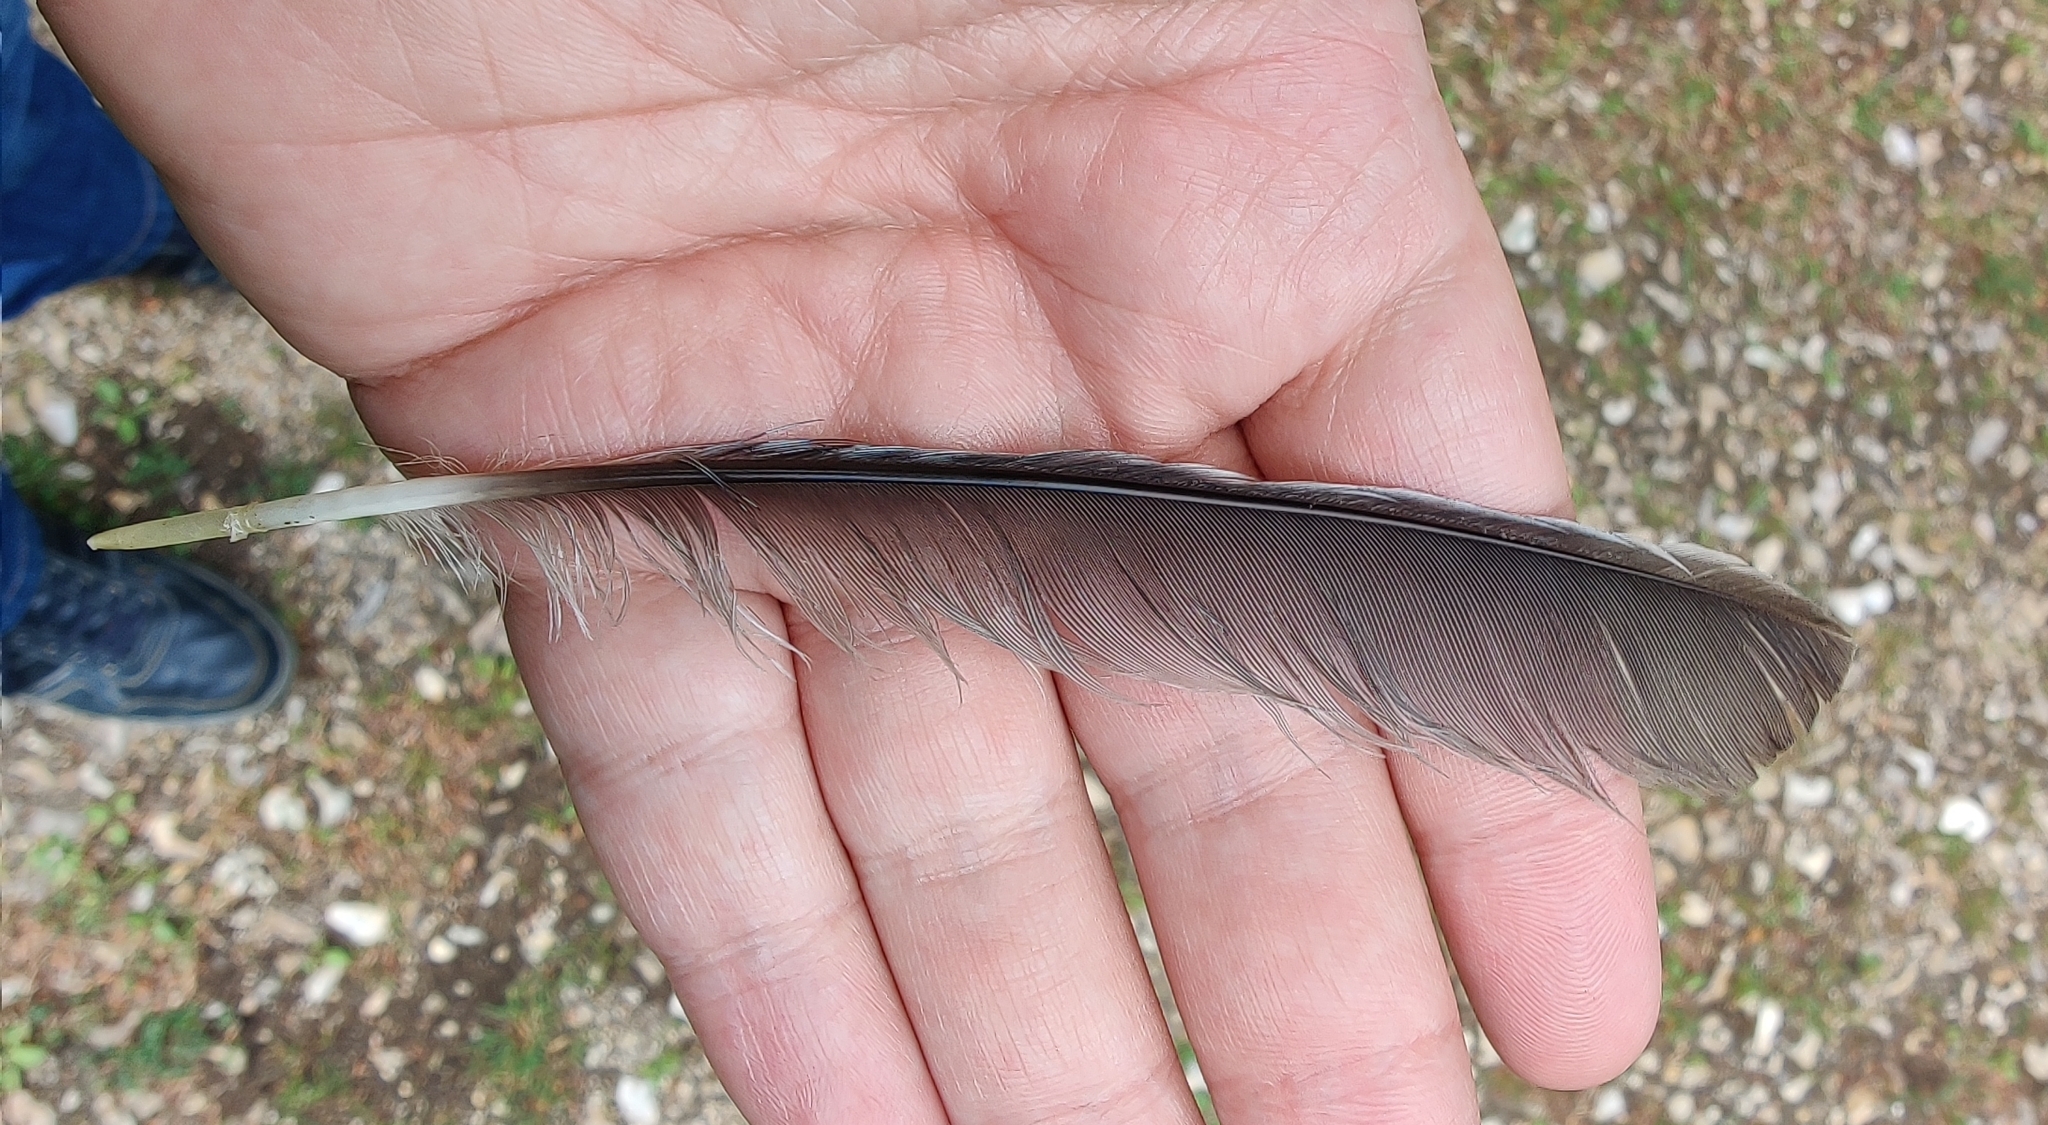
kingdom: Animalia
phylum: Chordata
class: Aves
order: Passeriformes
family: Corvidae
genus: Garrulus
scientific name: Garrulus glandarius
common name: Eurasian jay
